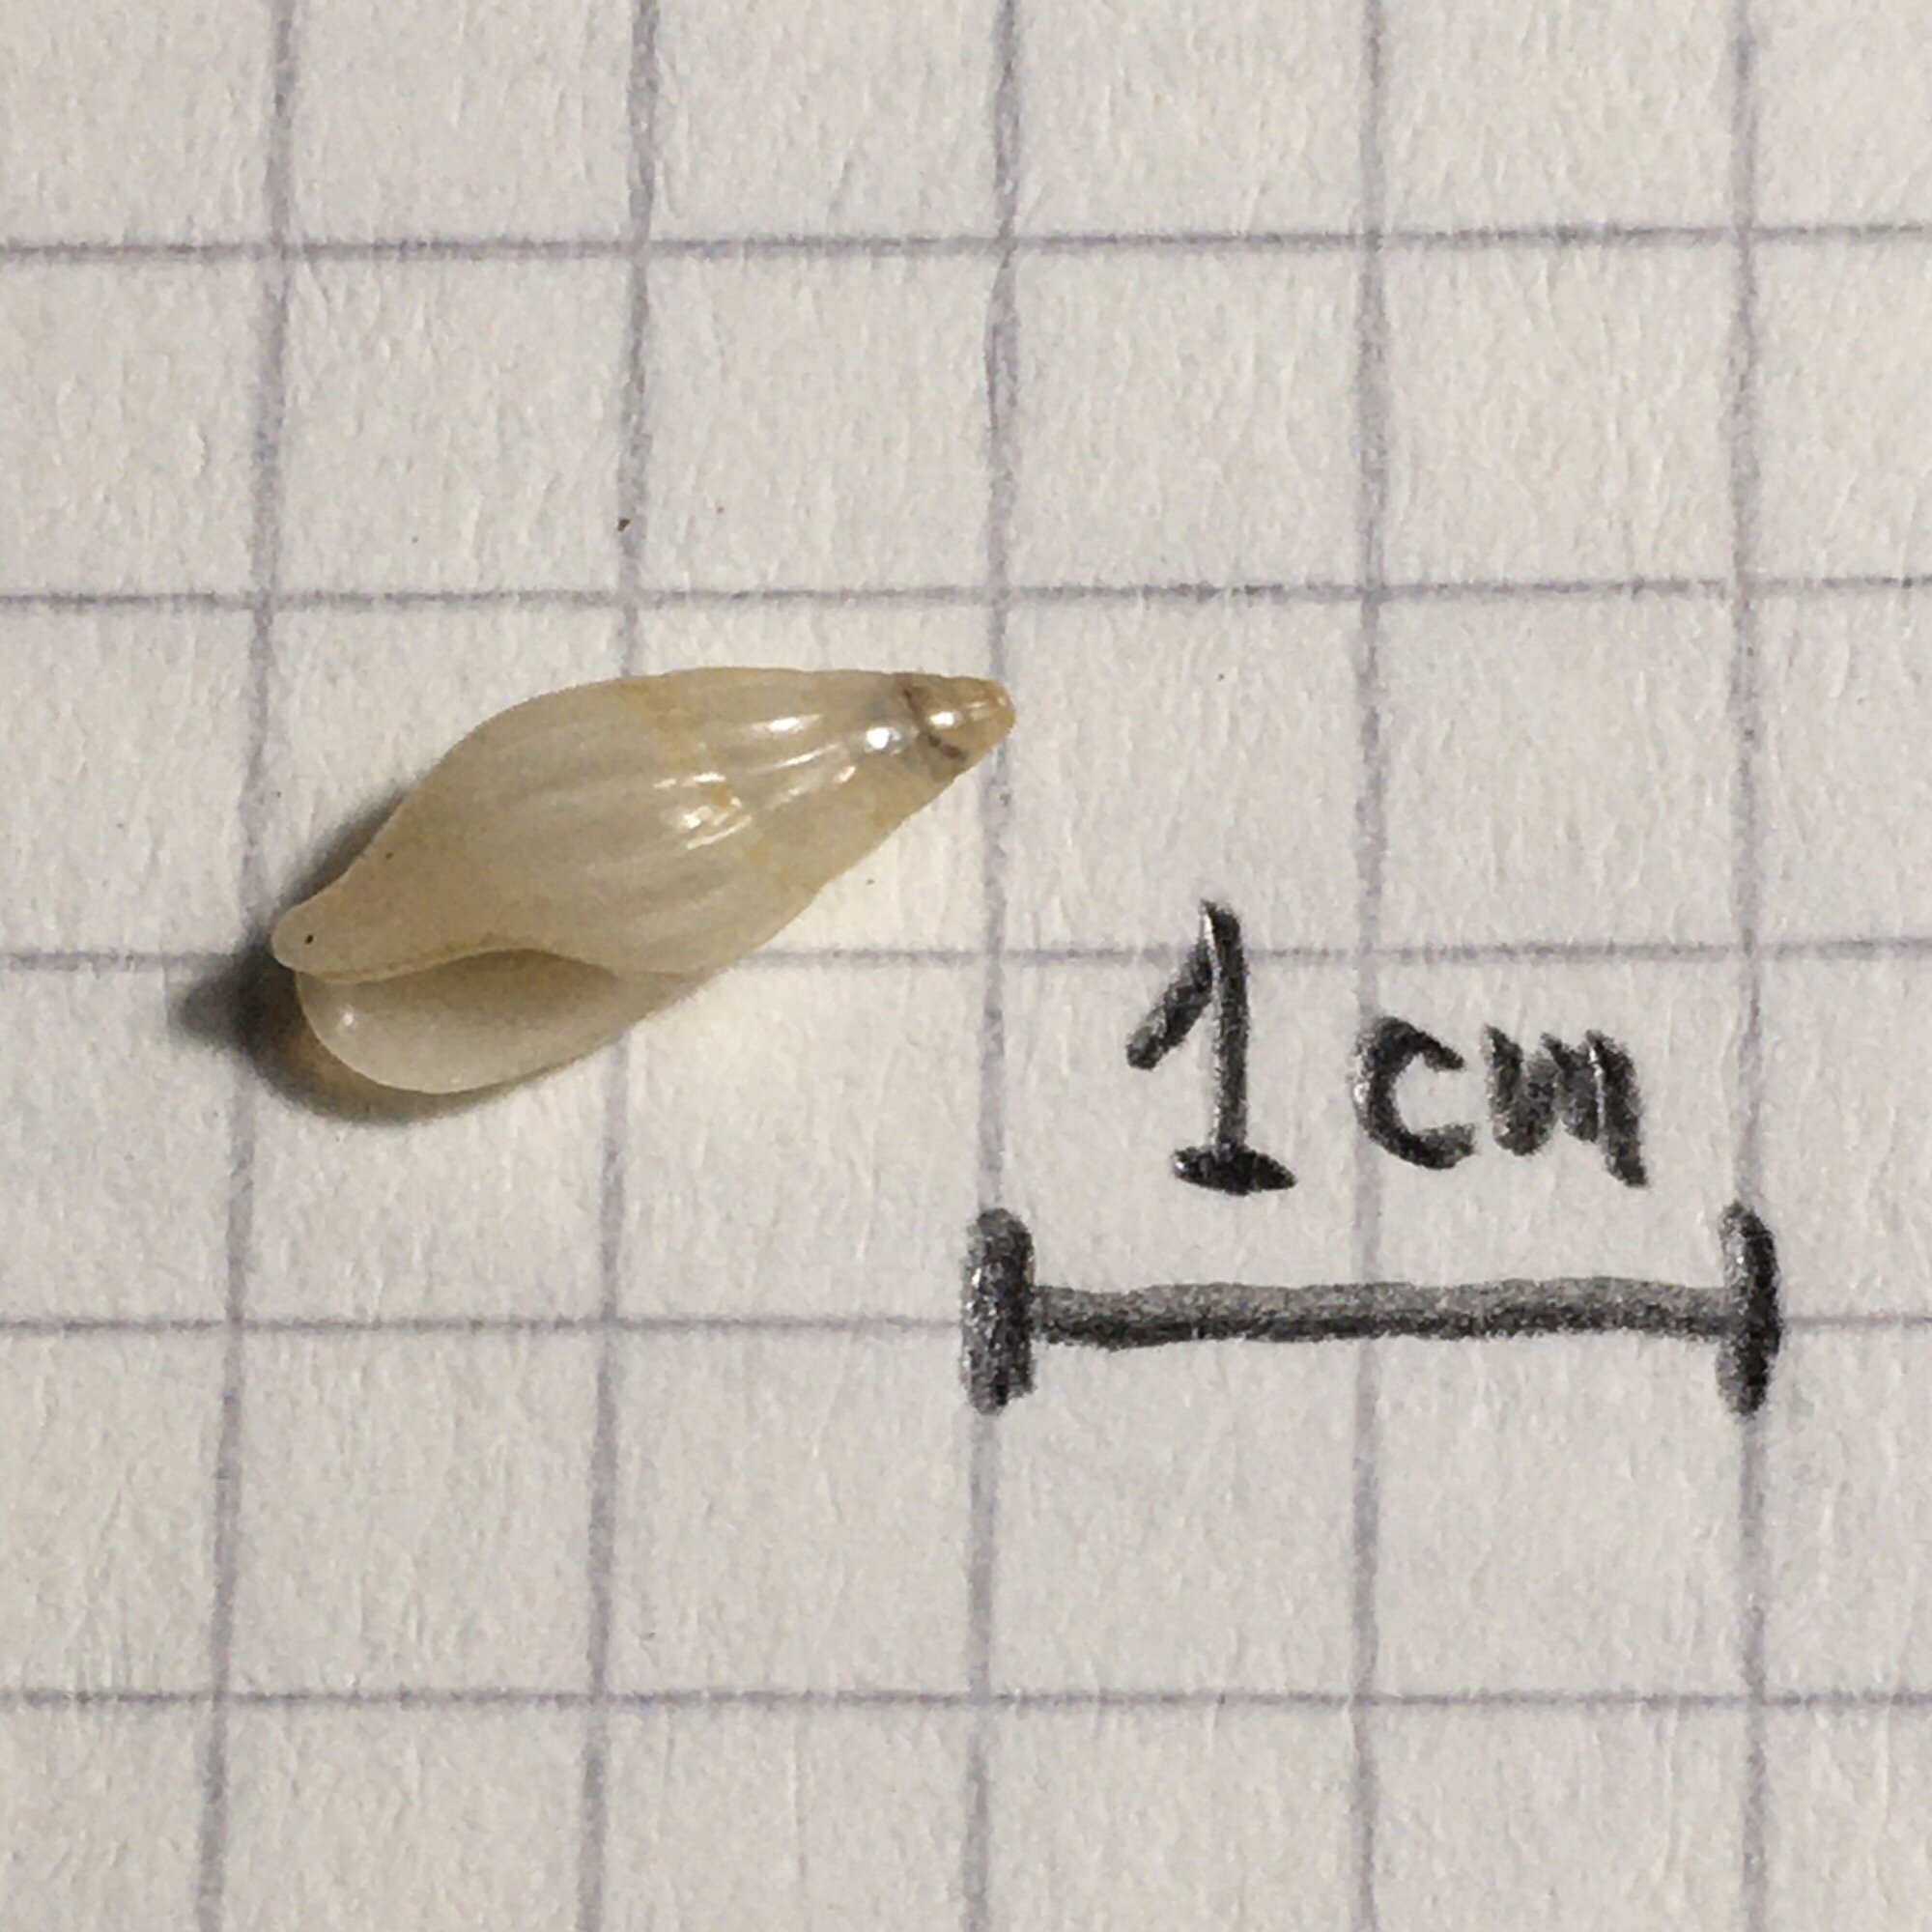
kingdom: Animalia
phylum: Mollusca
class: Gastropoda
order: Neogastropoda
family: Columbellidae
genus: Costoanachis
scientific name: Costoanachis sertulariarum
